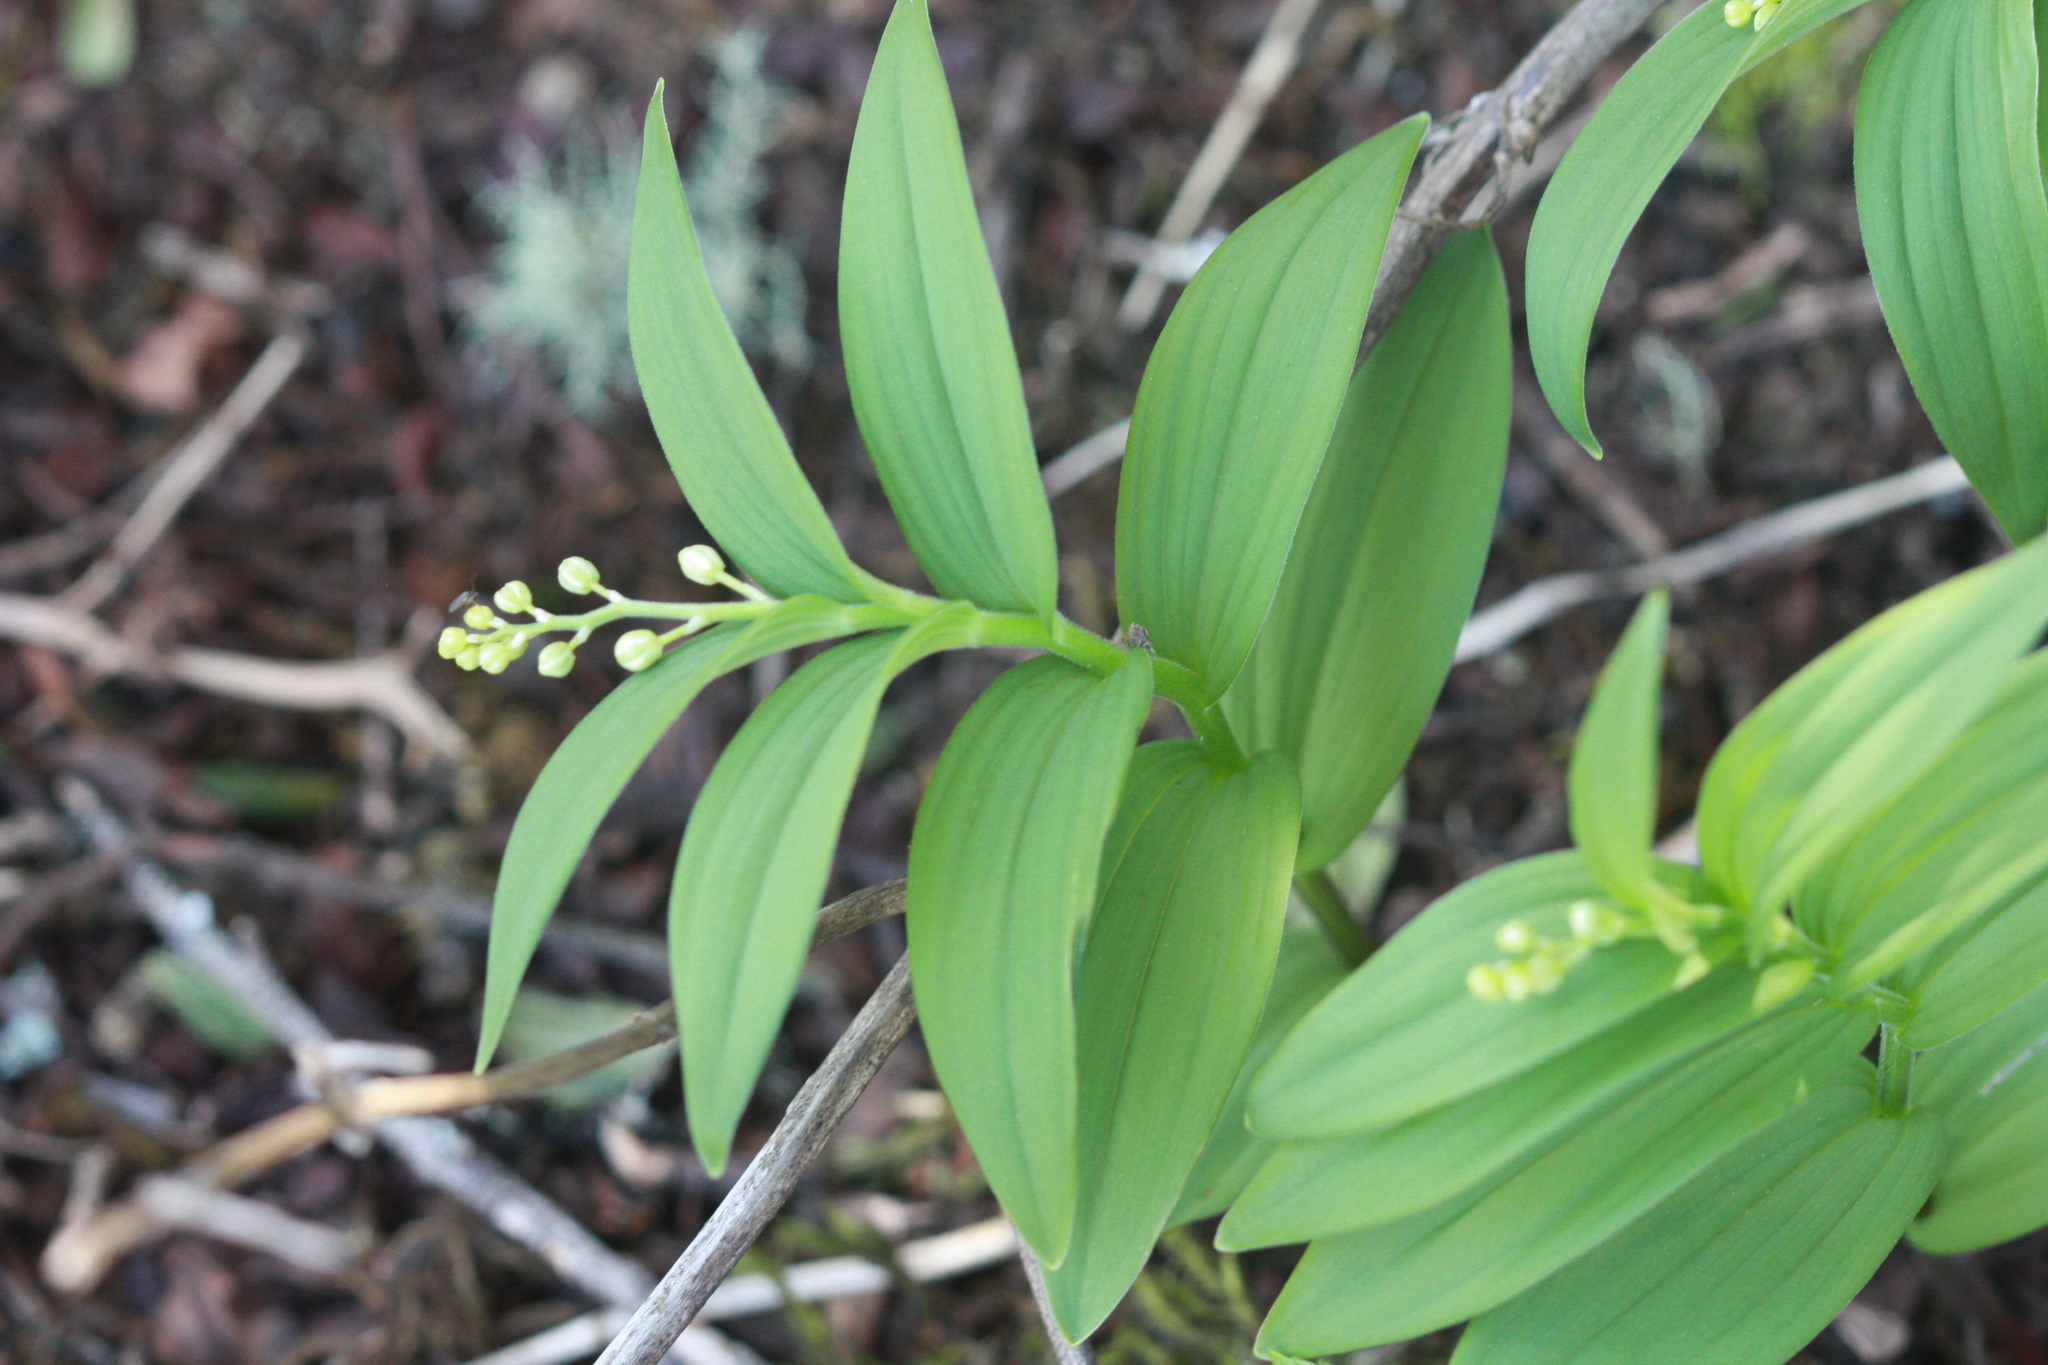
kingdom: Plantae
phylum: Tracheophyta
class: Liliopsida
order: Asparagales
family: Asparagaceae
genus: Maianthemum
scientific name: Maianthemum stellatum
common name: Little false solomon's seal
